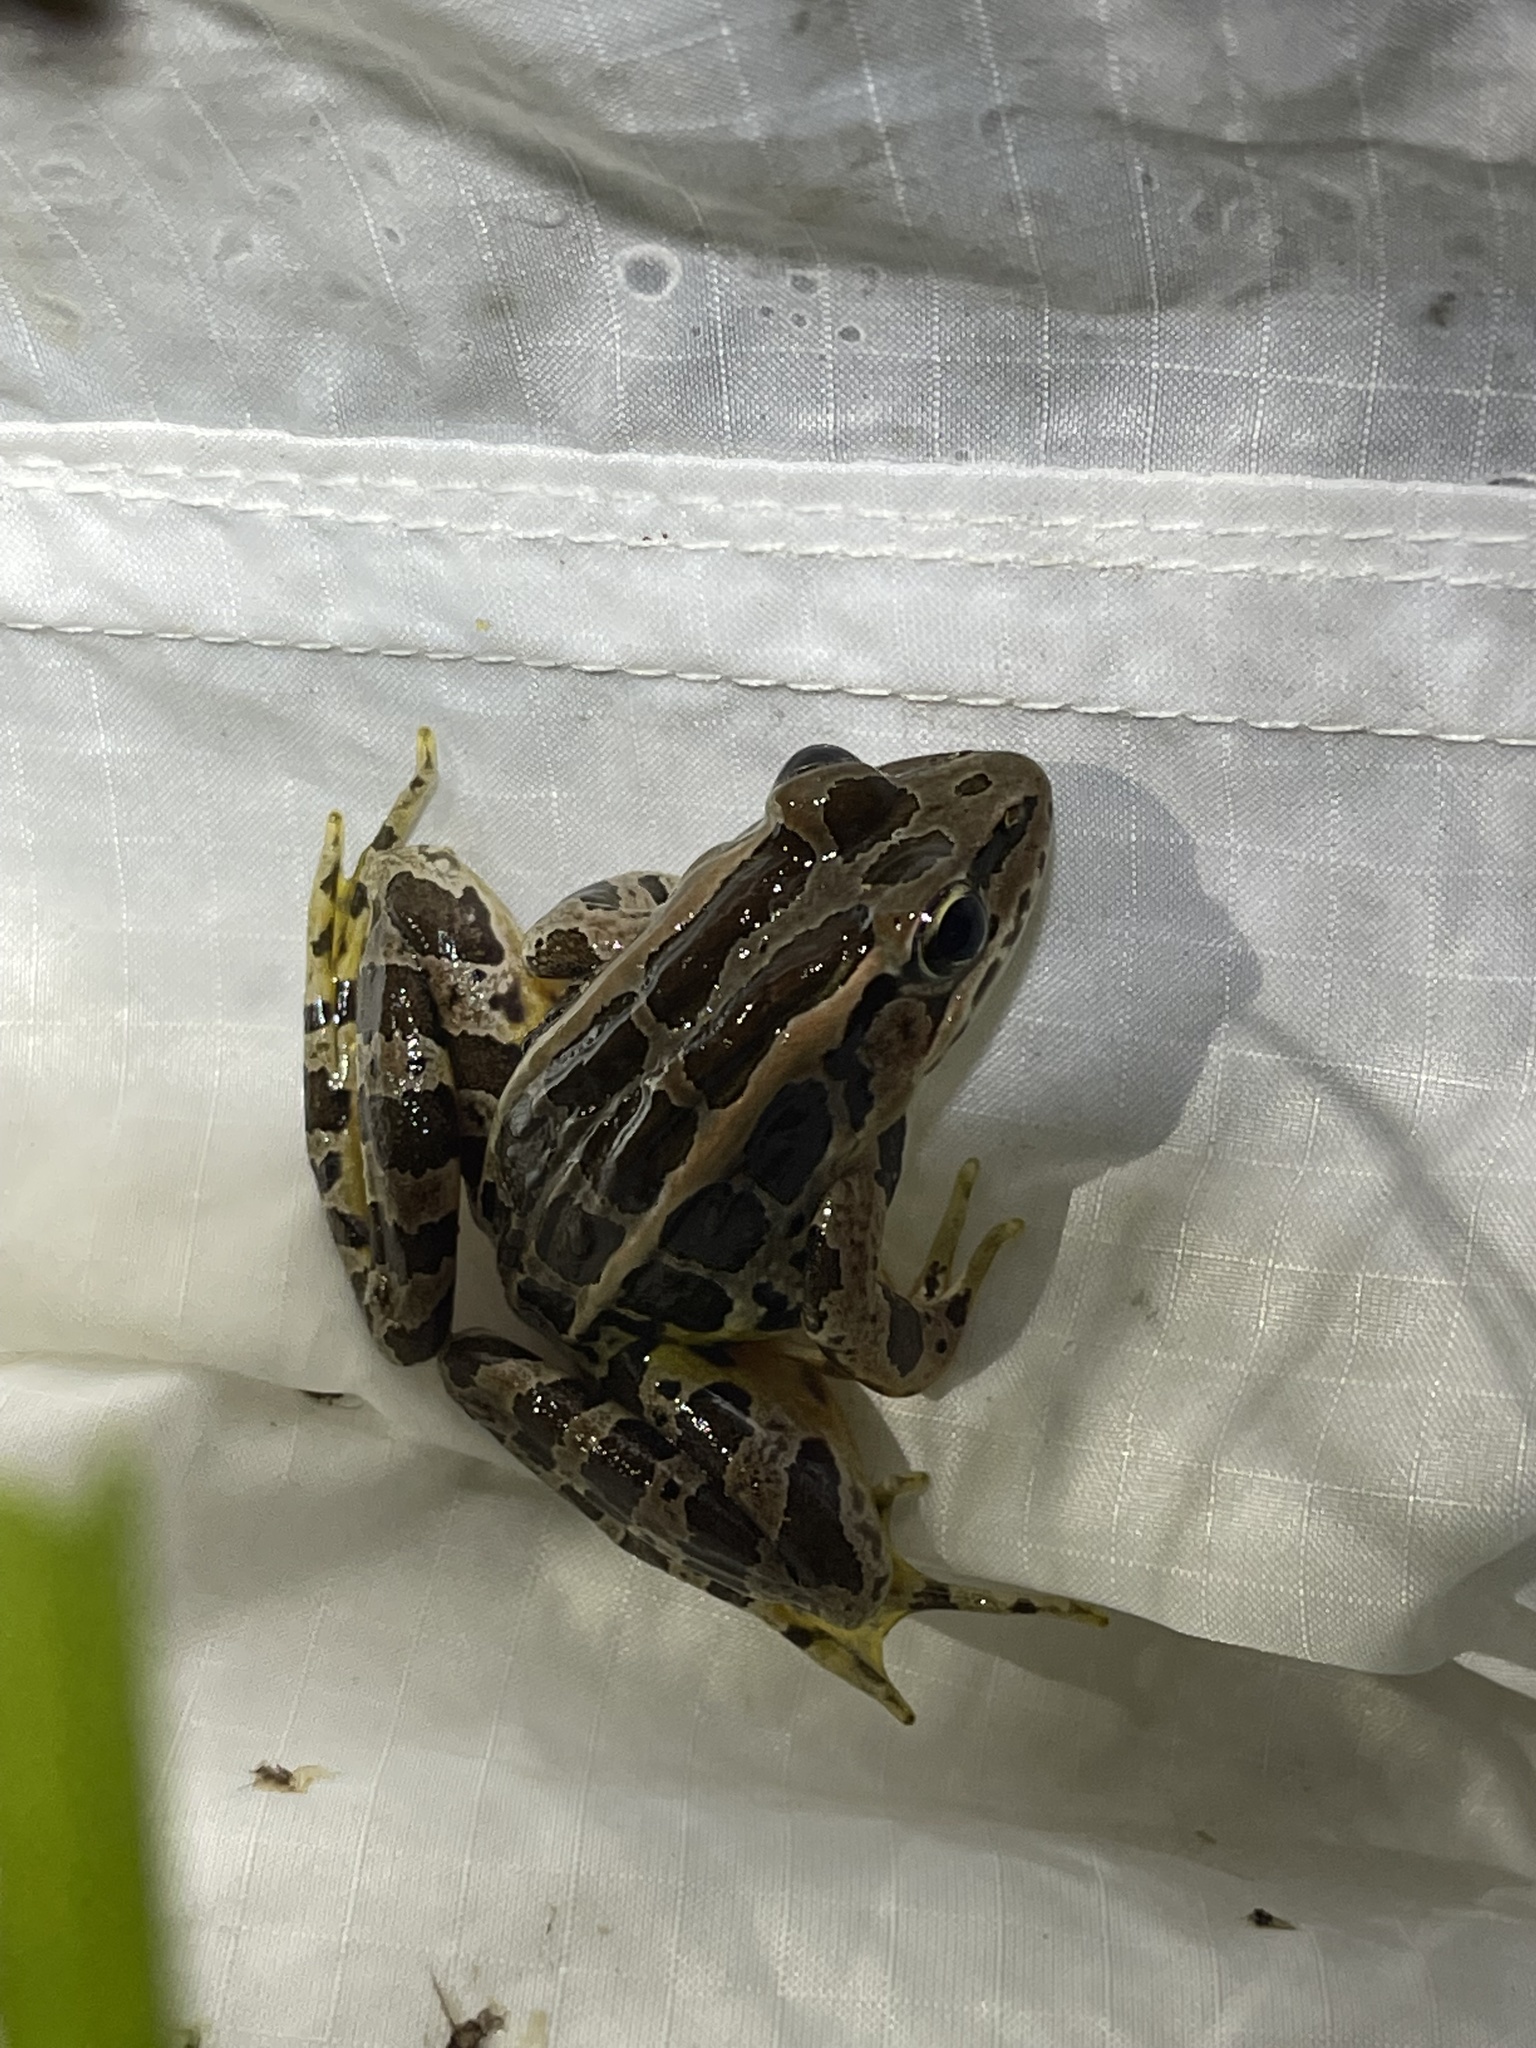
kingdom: Animalia
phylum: Chordata
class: Amphibia
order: Anura
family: Ranidae
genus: Lithobates
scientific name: Lithobates palustris
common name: Pickerel frog
